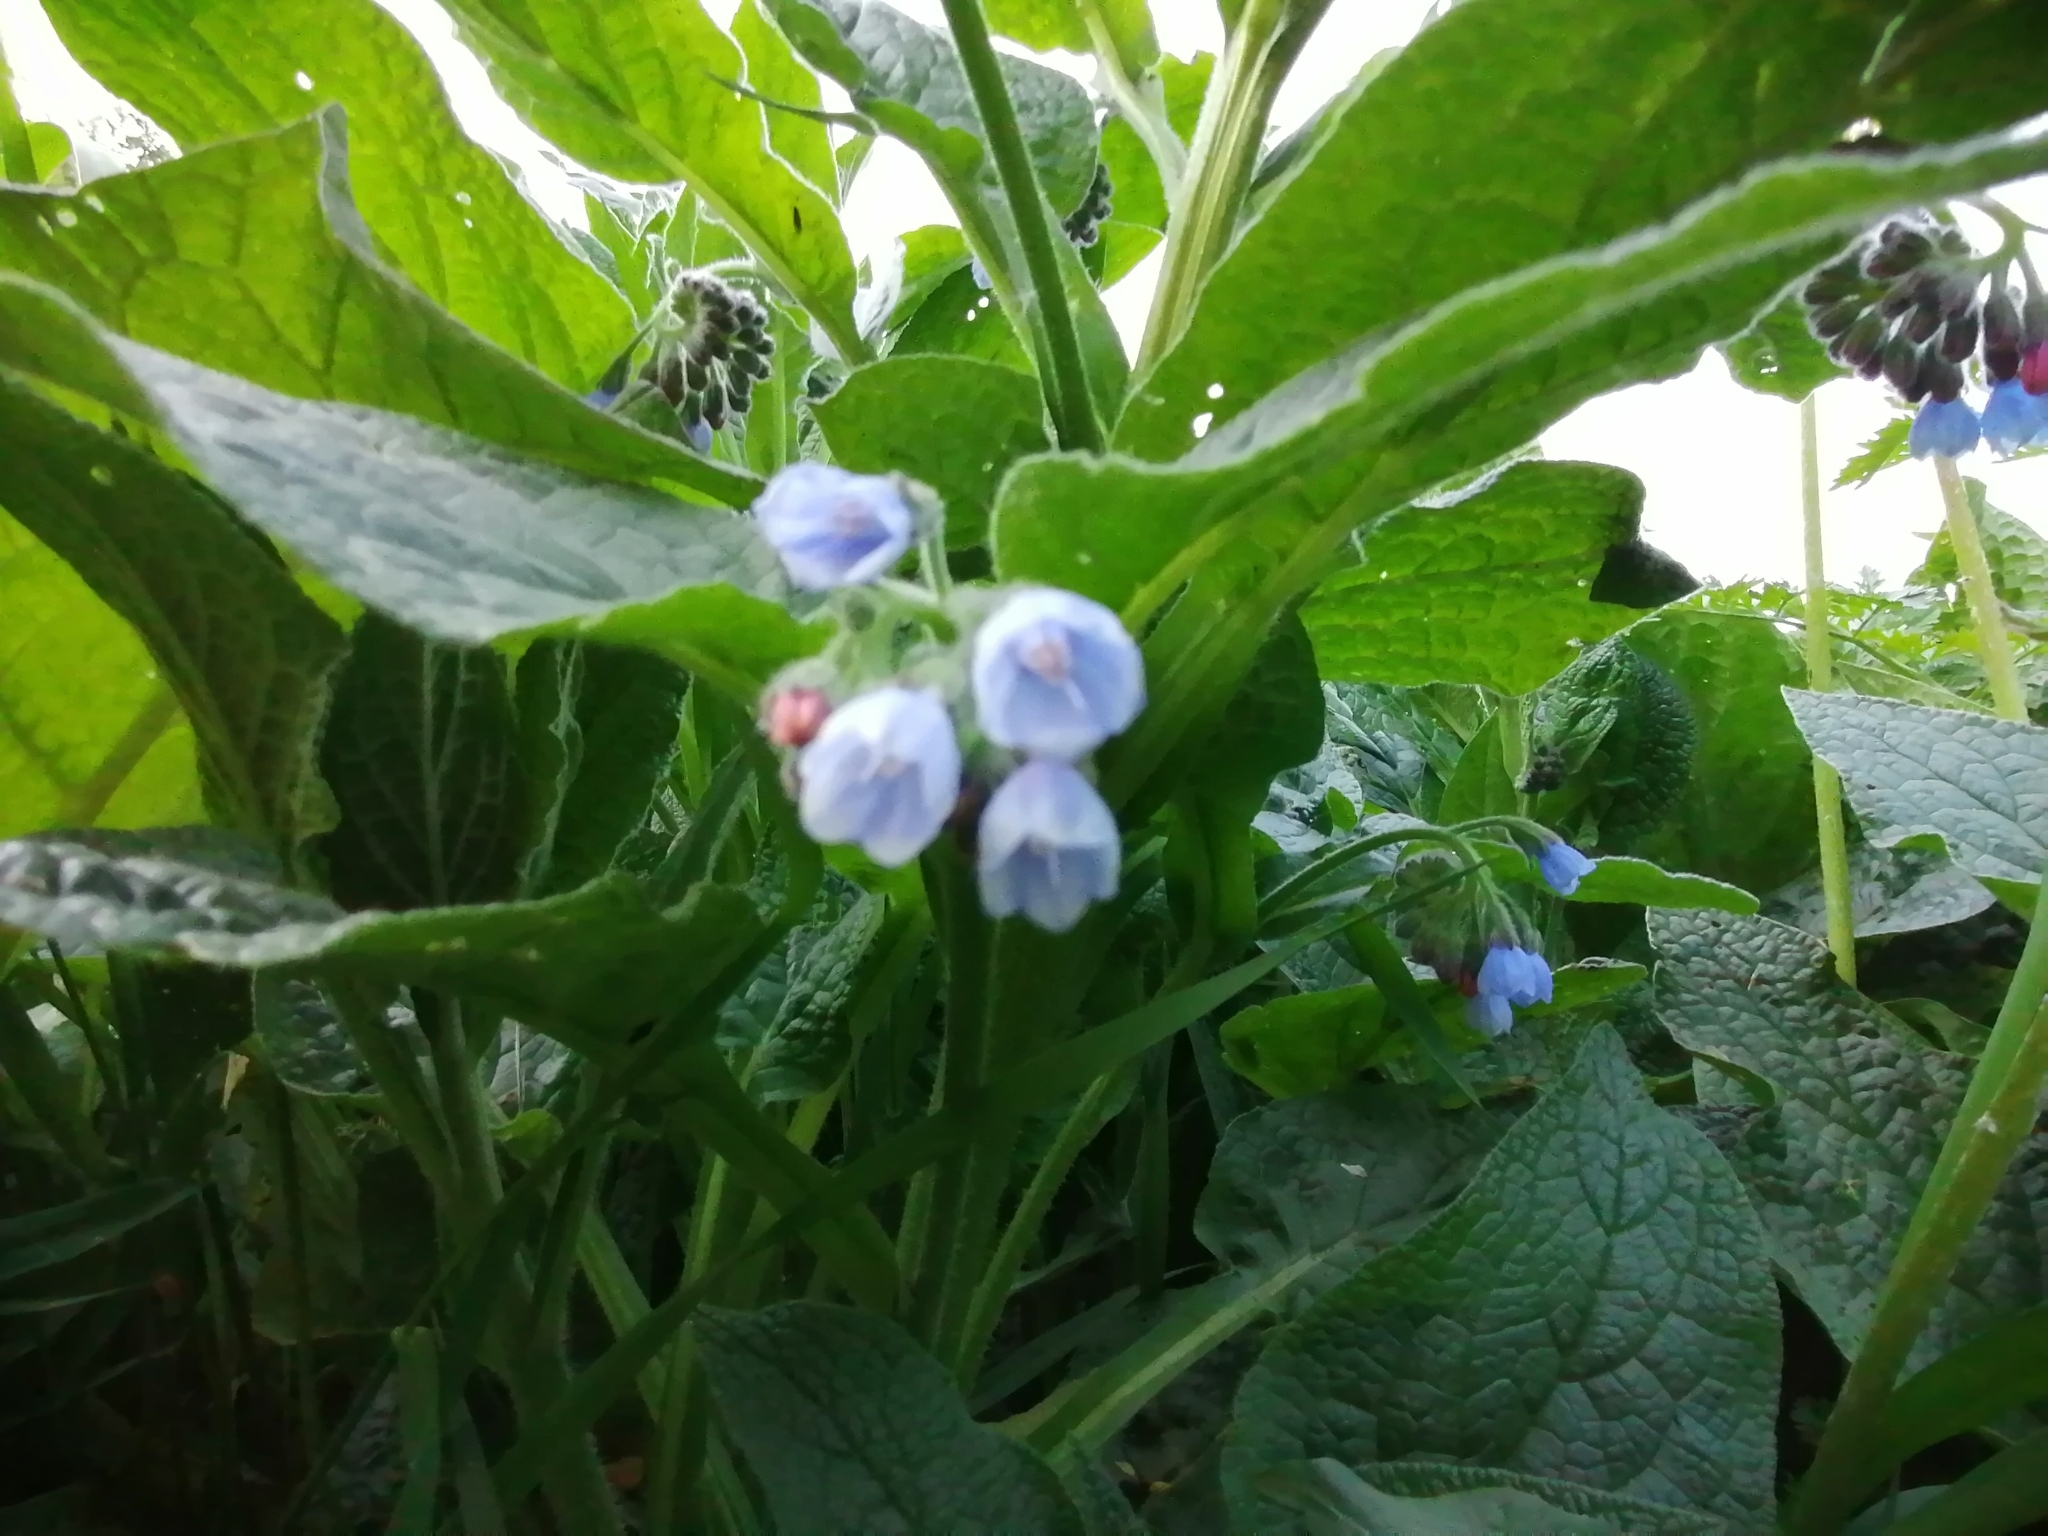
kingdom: Plantae
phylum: Tracheophyta
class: Magnoliopsida
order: Boraginales
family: Boraginaceae
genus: Symphytum
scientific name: Symphytum officinale
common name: Common comfrey
